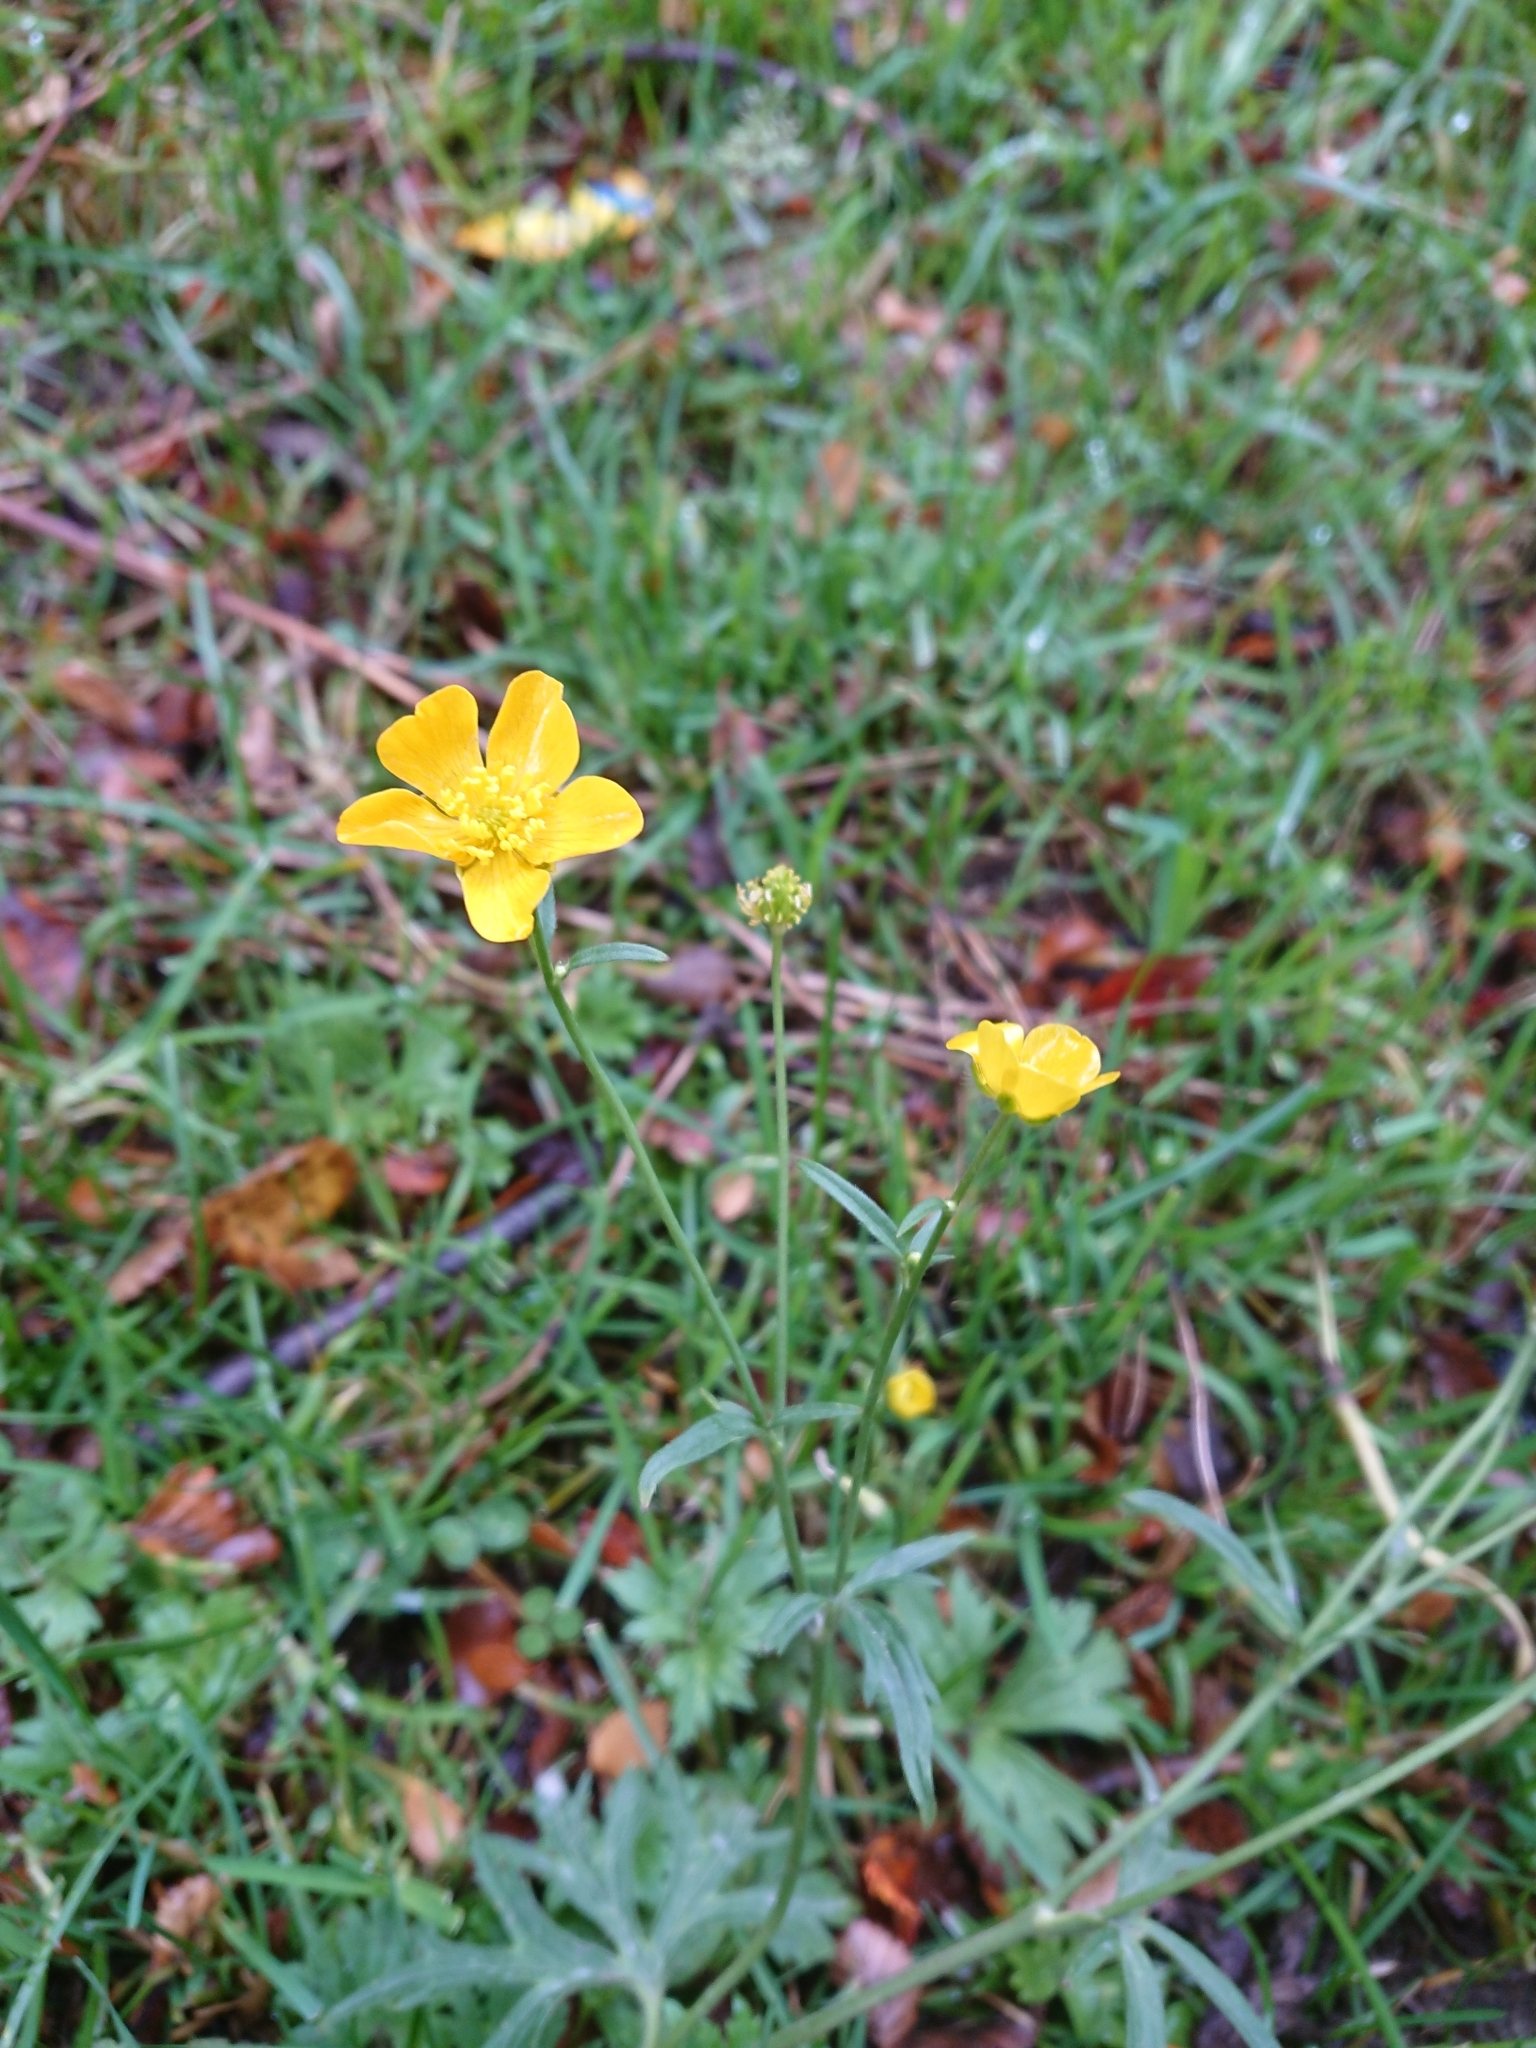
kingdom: Plantae
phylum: Tracheophyta
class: Magnoliopsida
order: Ranunculales
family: Ranunculaceae
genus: Ranunculus
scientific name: Ranunculus repens
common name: Creeping buttercup
